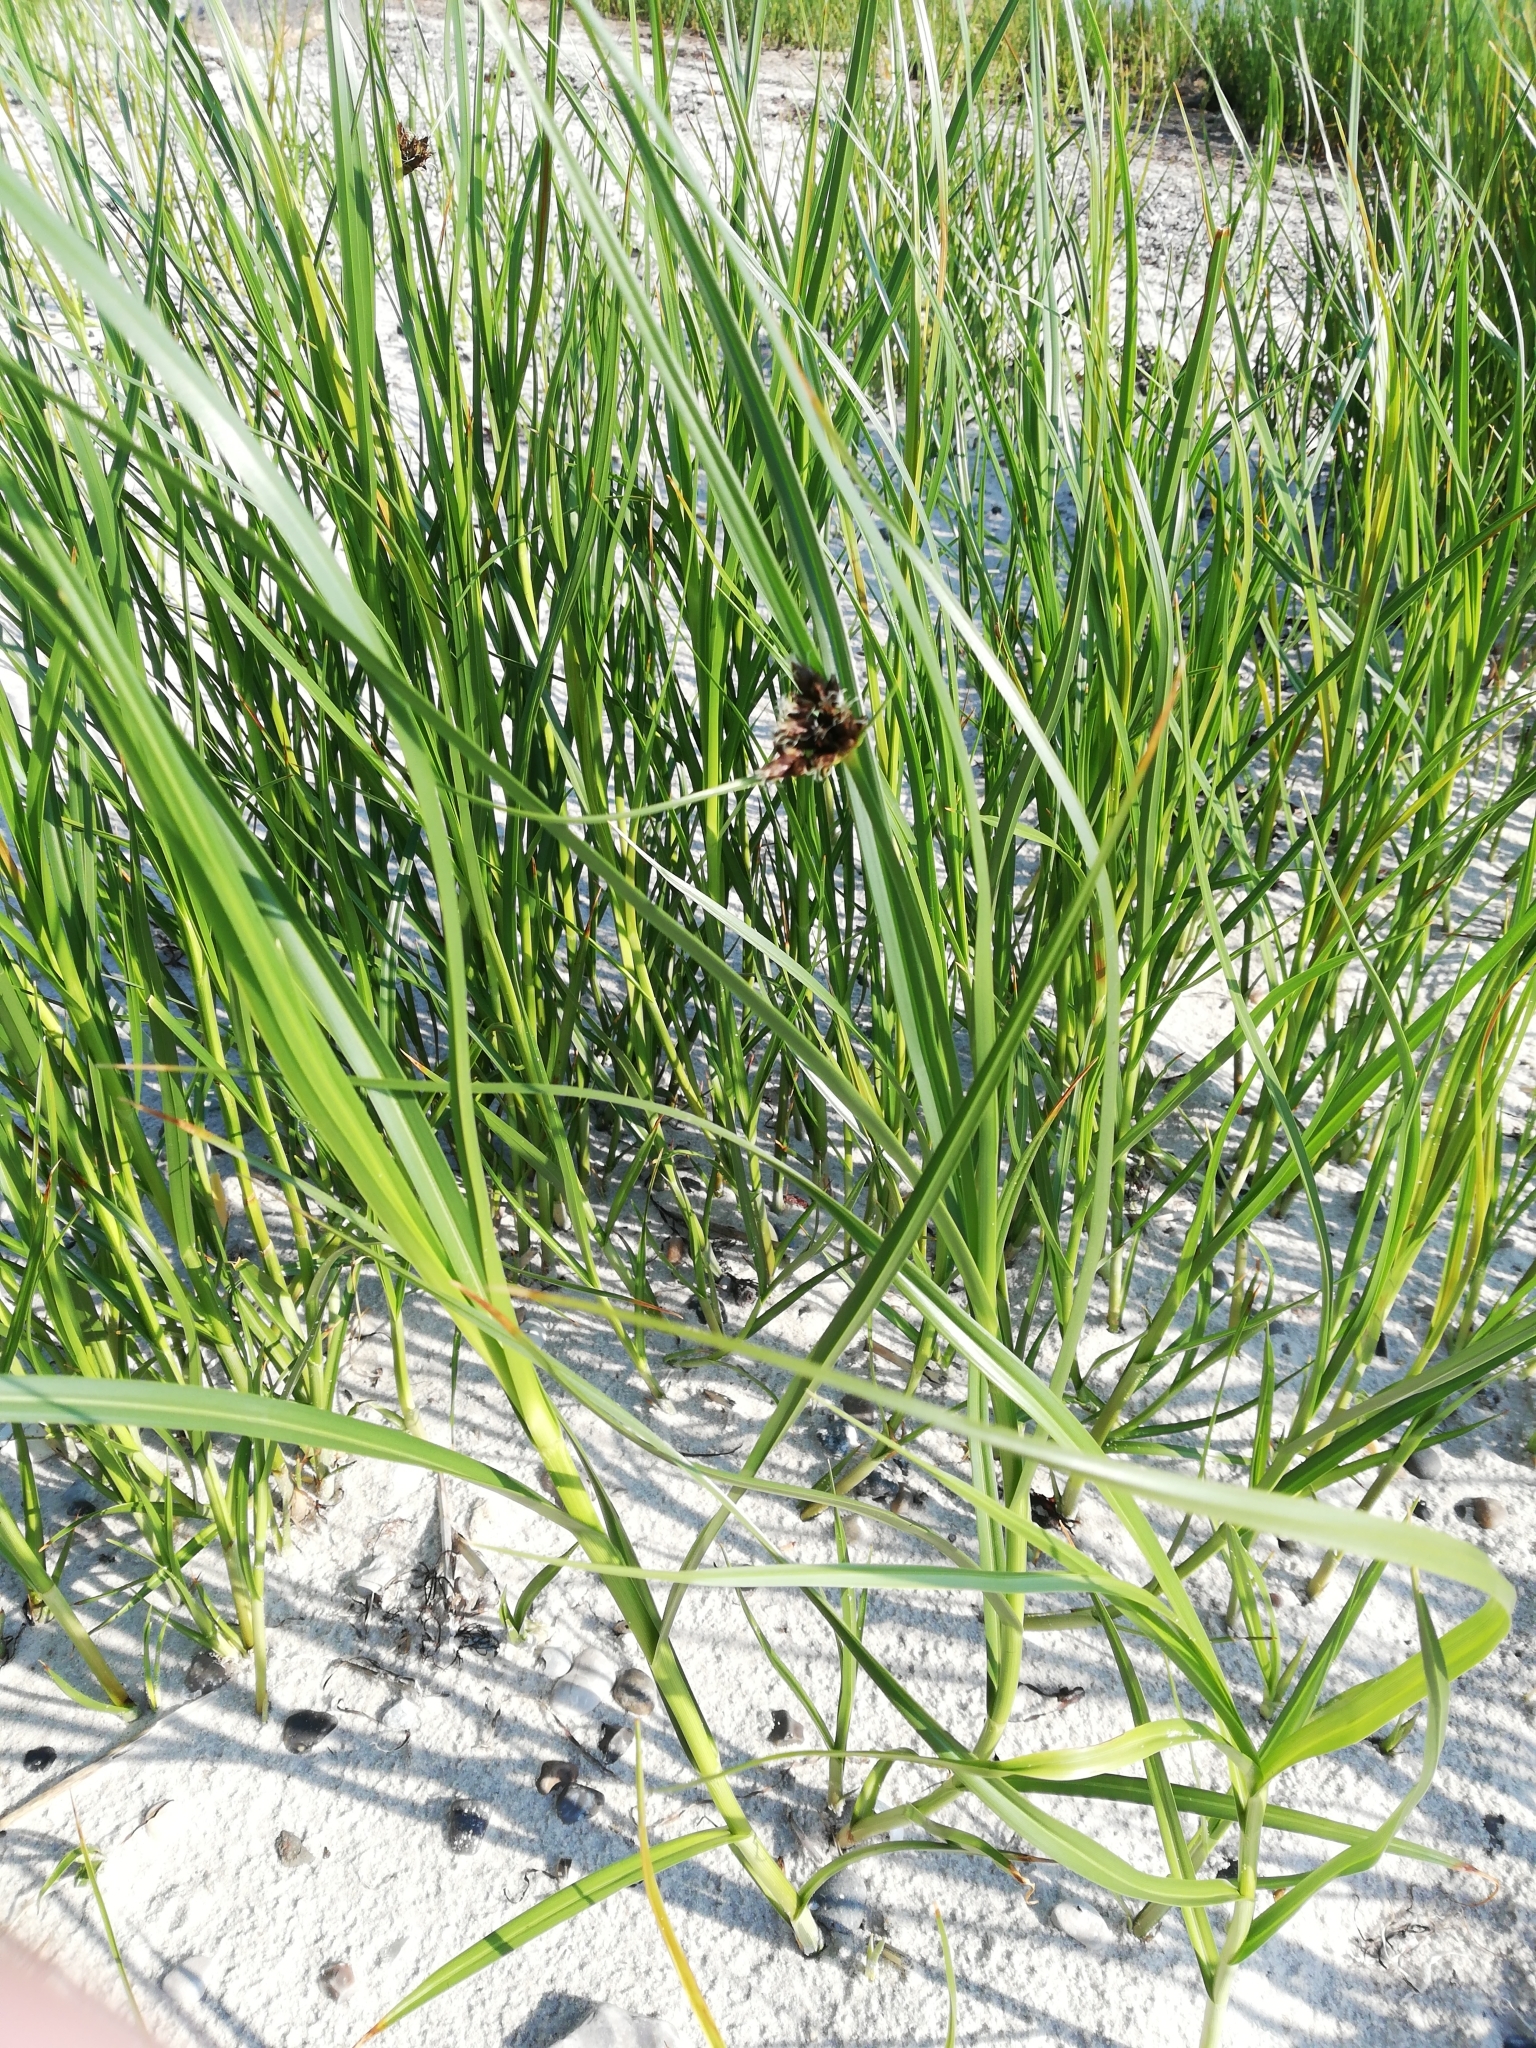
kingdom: Plantae
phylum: Tracheophyta
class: Liliopsida
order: Poales
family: Cyperaceae
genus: Bolboschoenus
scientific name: Bolboschoenus maritimus
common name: Sea club-rush
